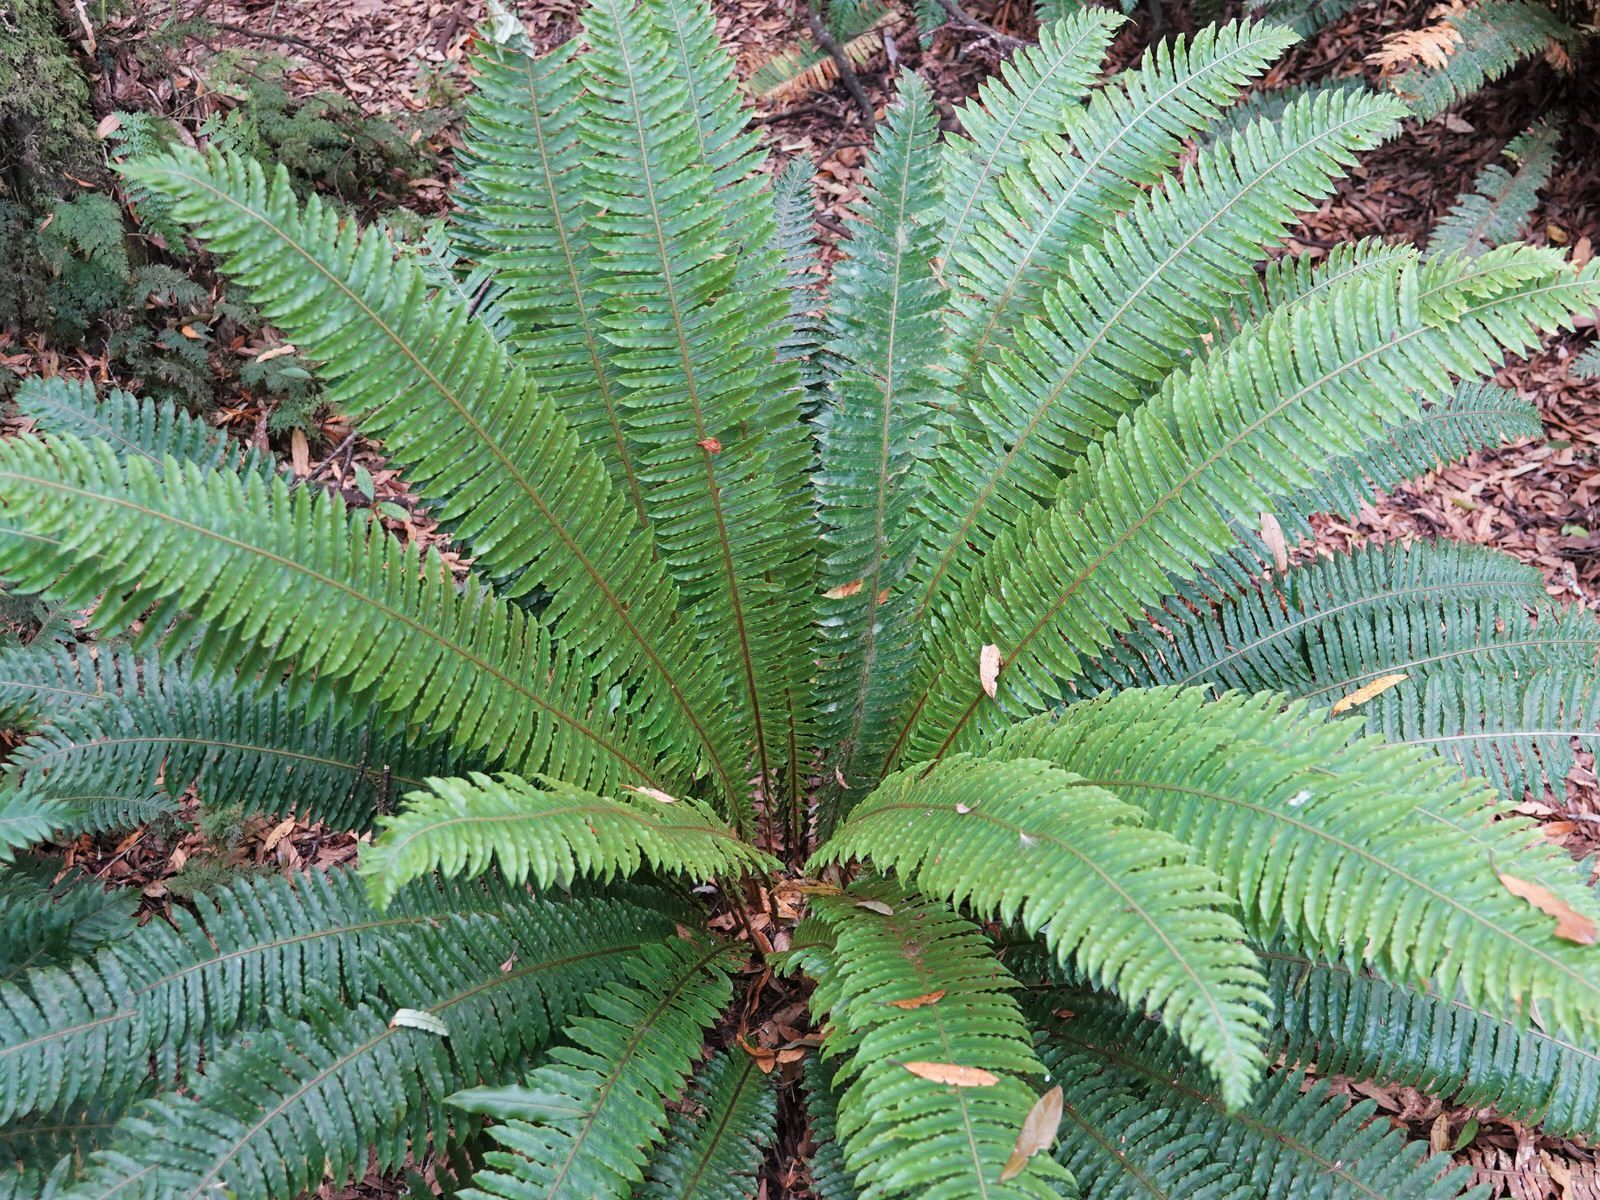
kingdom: Plantae
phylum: Tracheophyta
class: Polypodiopsida
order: Polypodiales
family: Blechnaceae
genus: Lomaria
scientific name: Lomaria discolor
